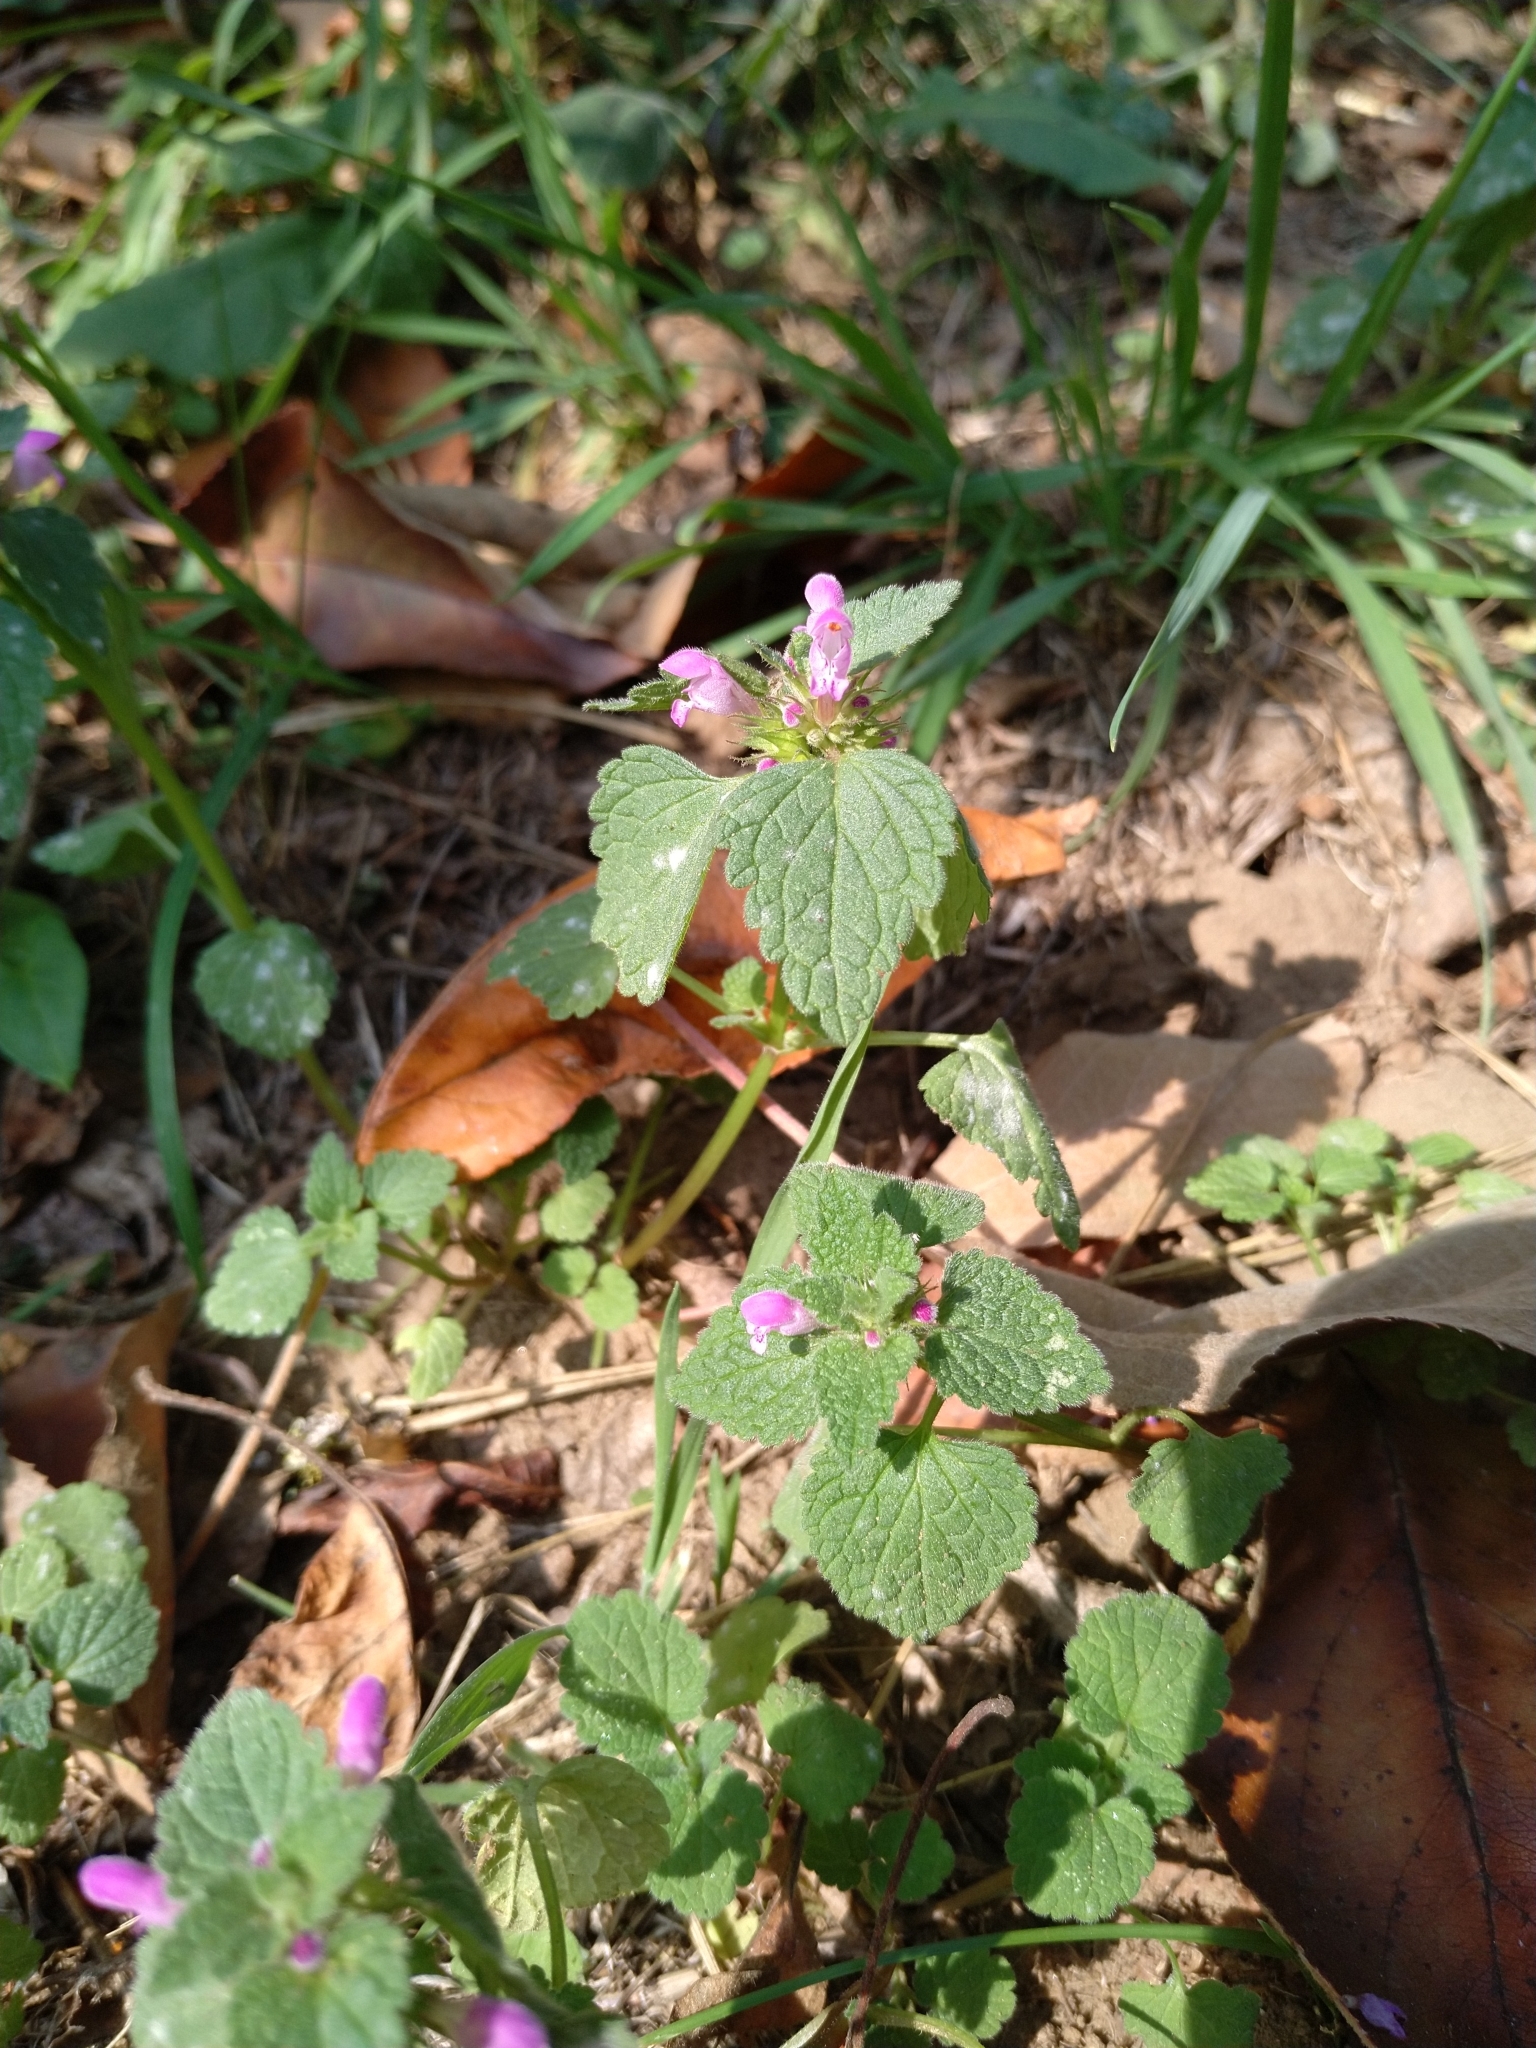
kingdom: Plantae
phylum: Tracheophyta
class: Magnoliopsida
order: Lamiales
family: Lamiaceae
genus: Lamium
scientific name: Lamium purpureum
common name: Red dead-nettle
